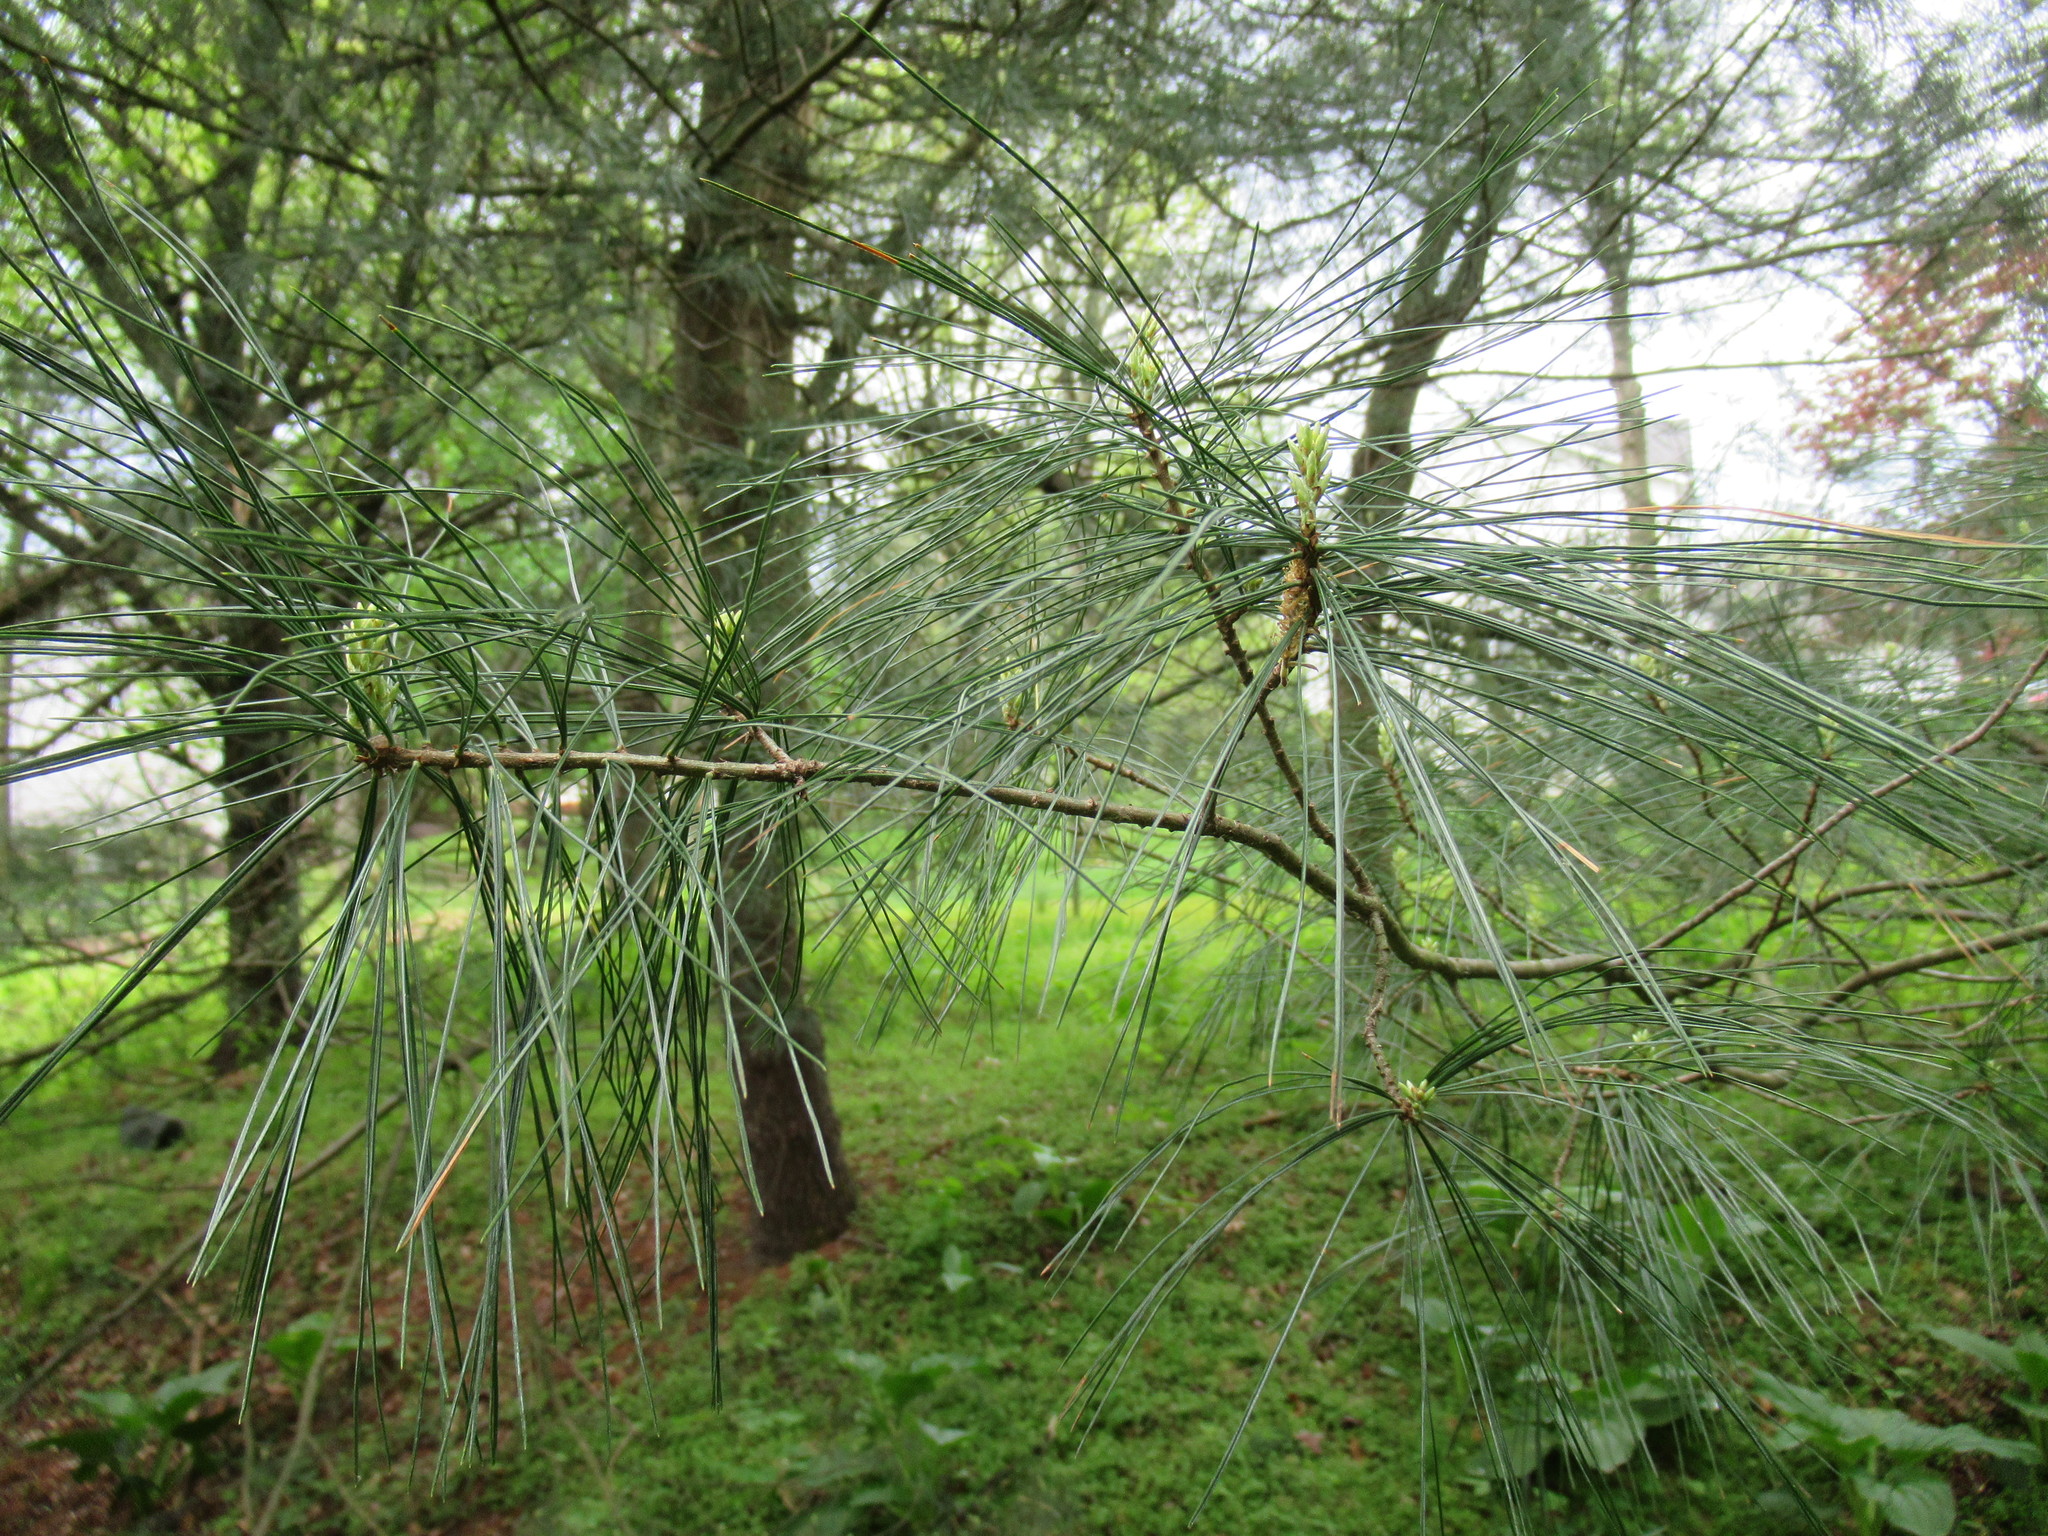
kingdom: Plantae
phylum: Tracheophyta
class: Pinopsida
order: Pinales
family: Pinaceae
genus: Pinus
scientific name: Pinus strobus
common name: Weymouth pine
